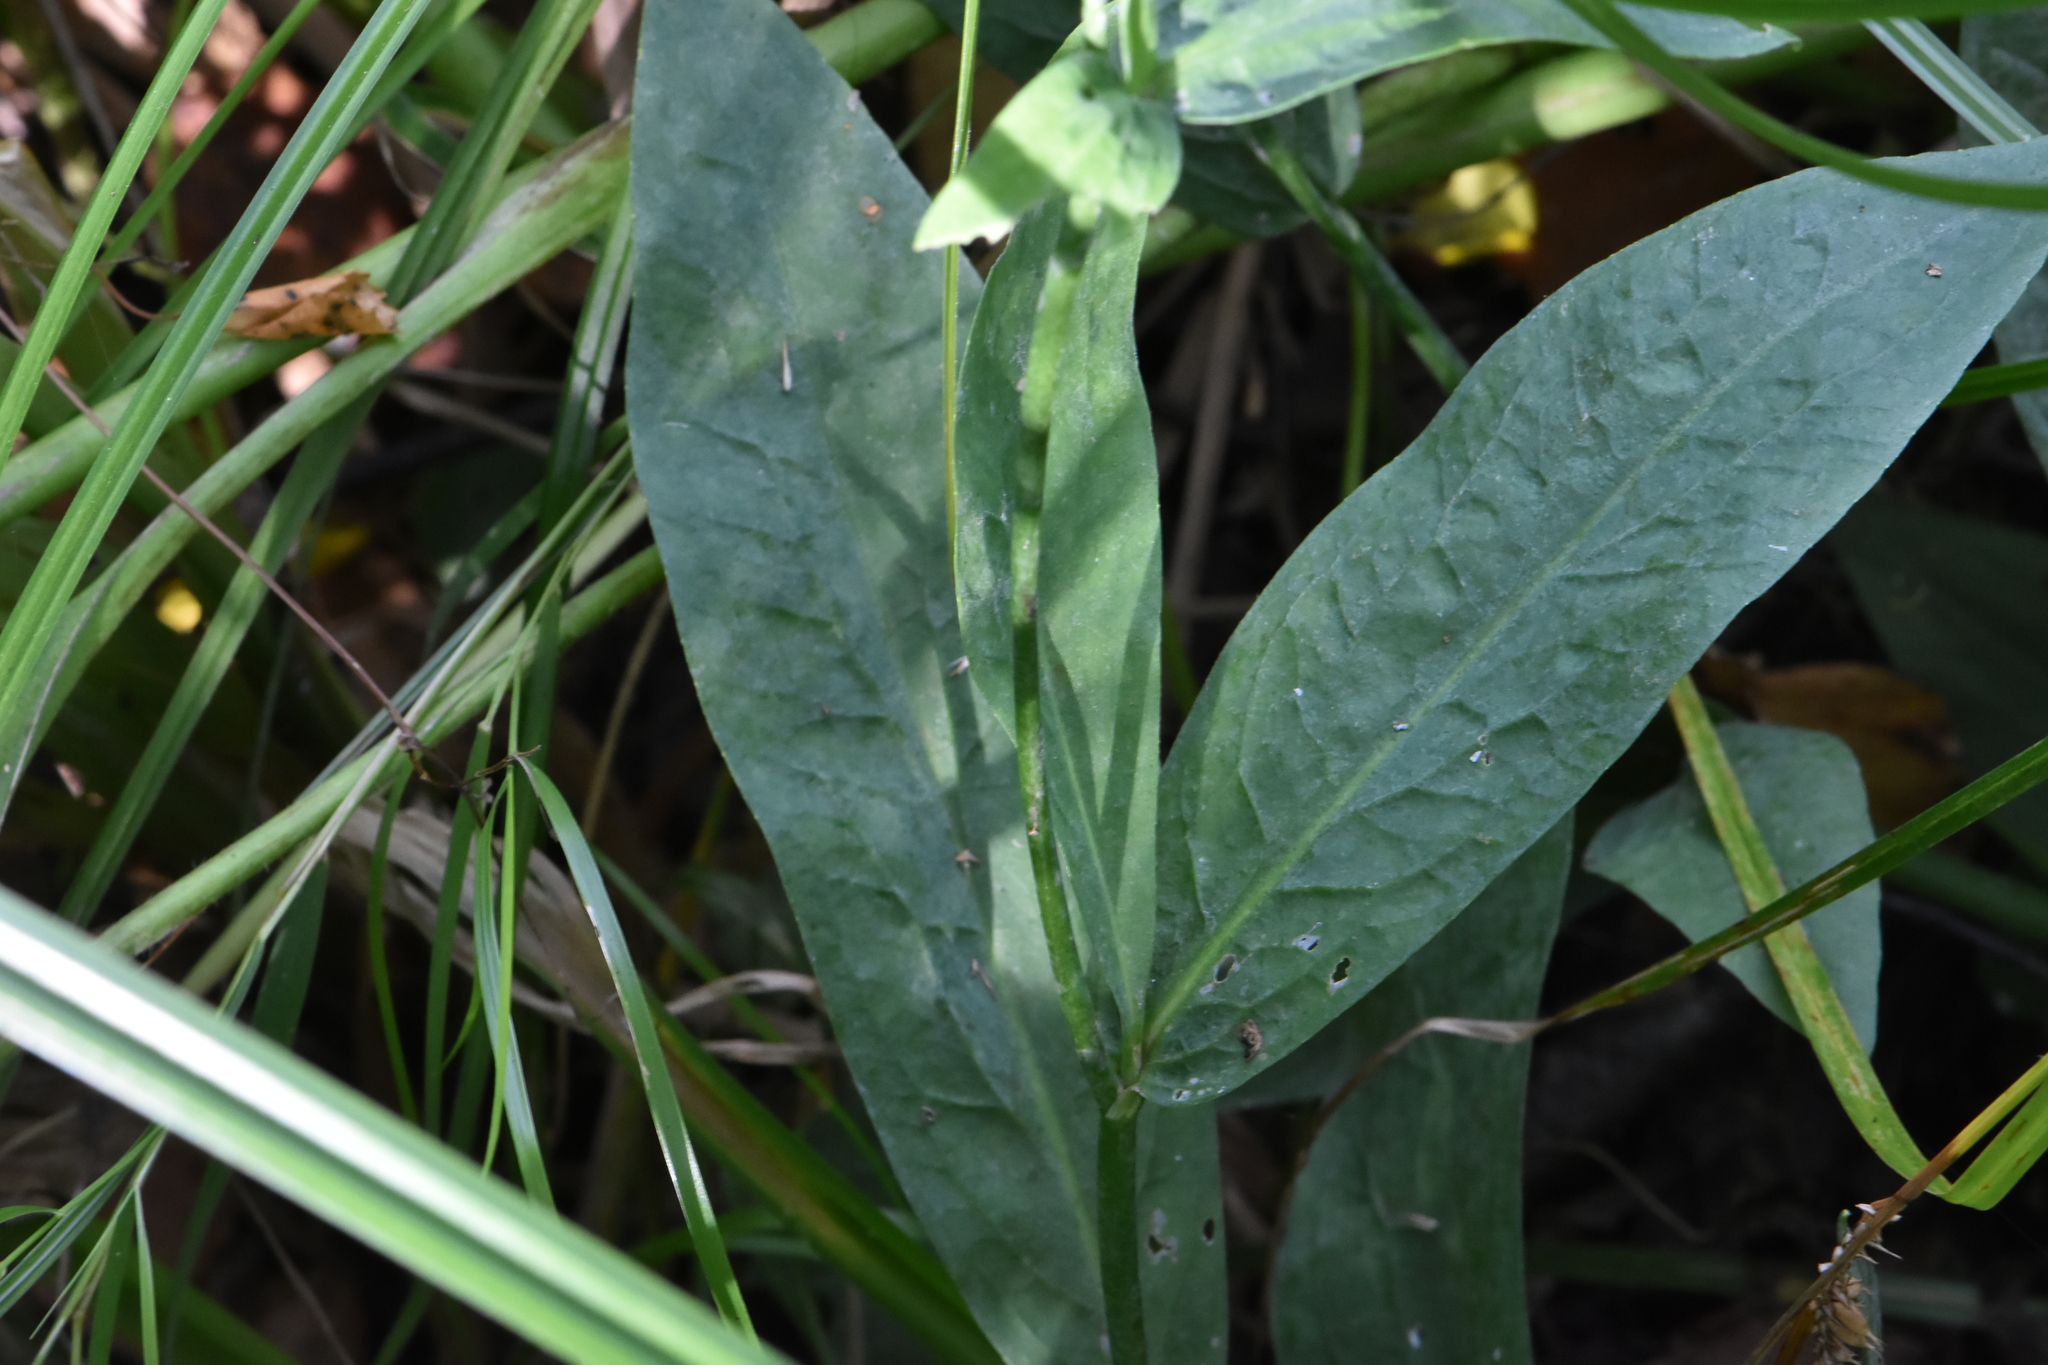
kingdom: Plantae
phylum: Tracheophyta
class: Magnoliopsida
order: Ranunculales
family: Ranunculaceae
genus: Ranunculus
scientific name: Ranunculus lingua
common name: Greater spearwort
